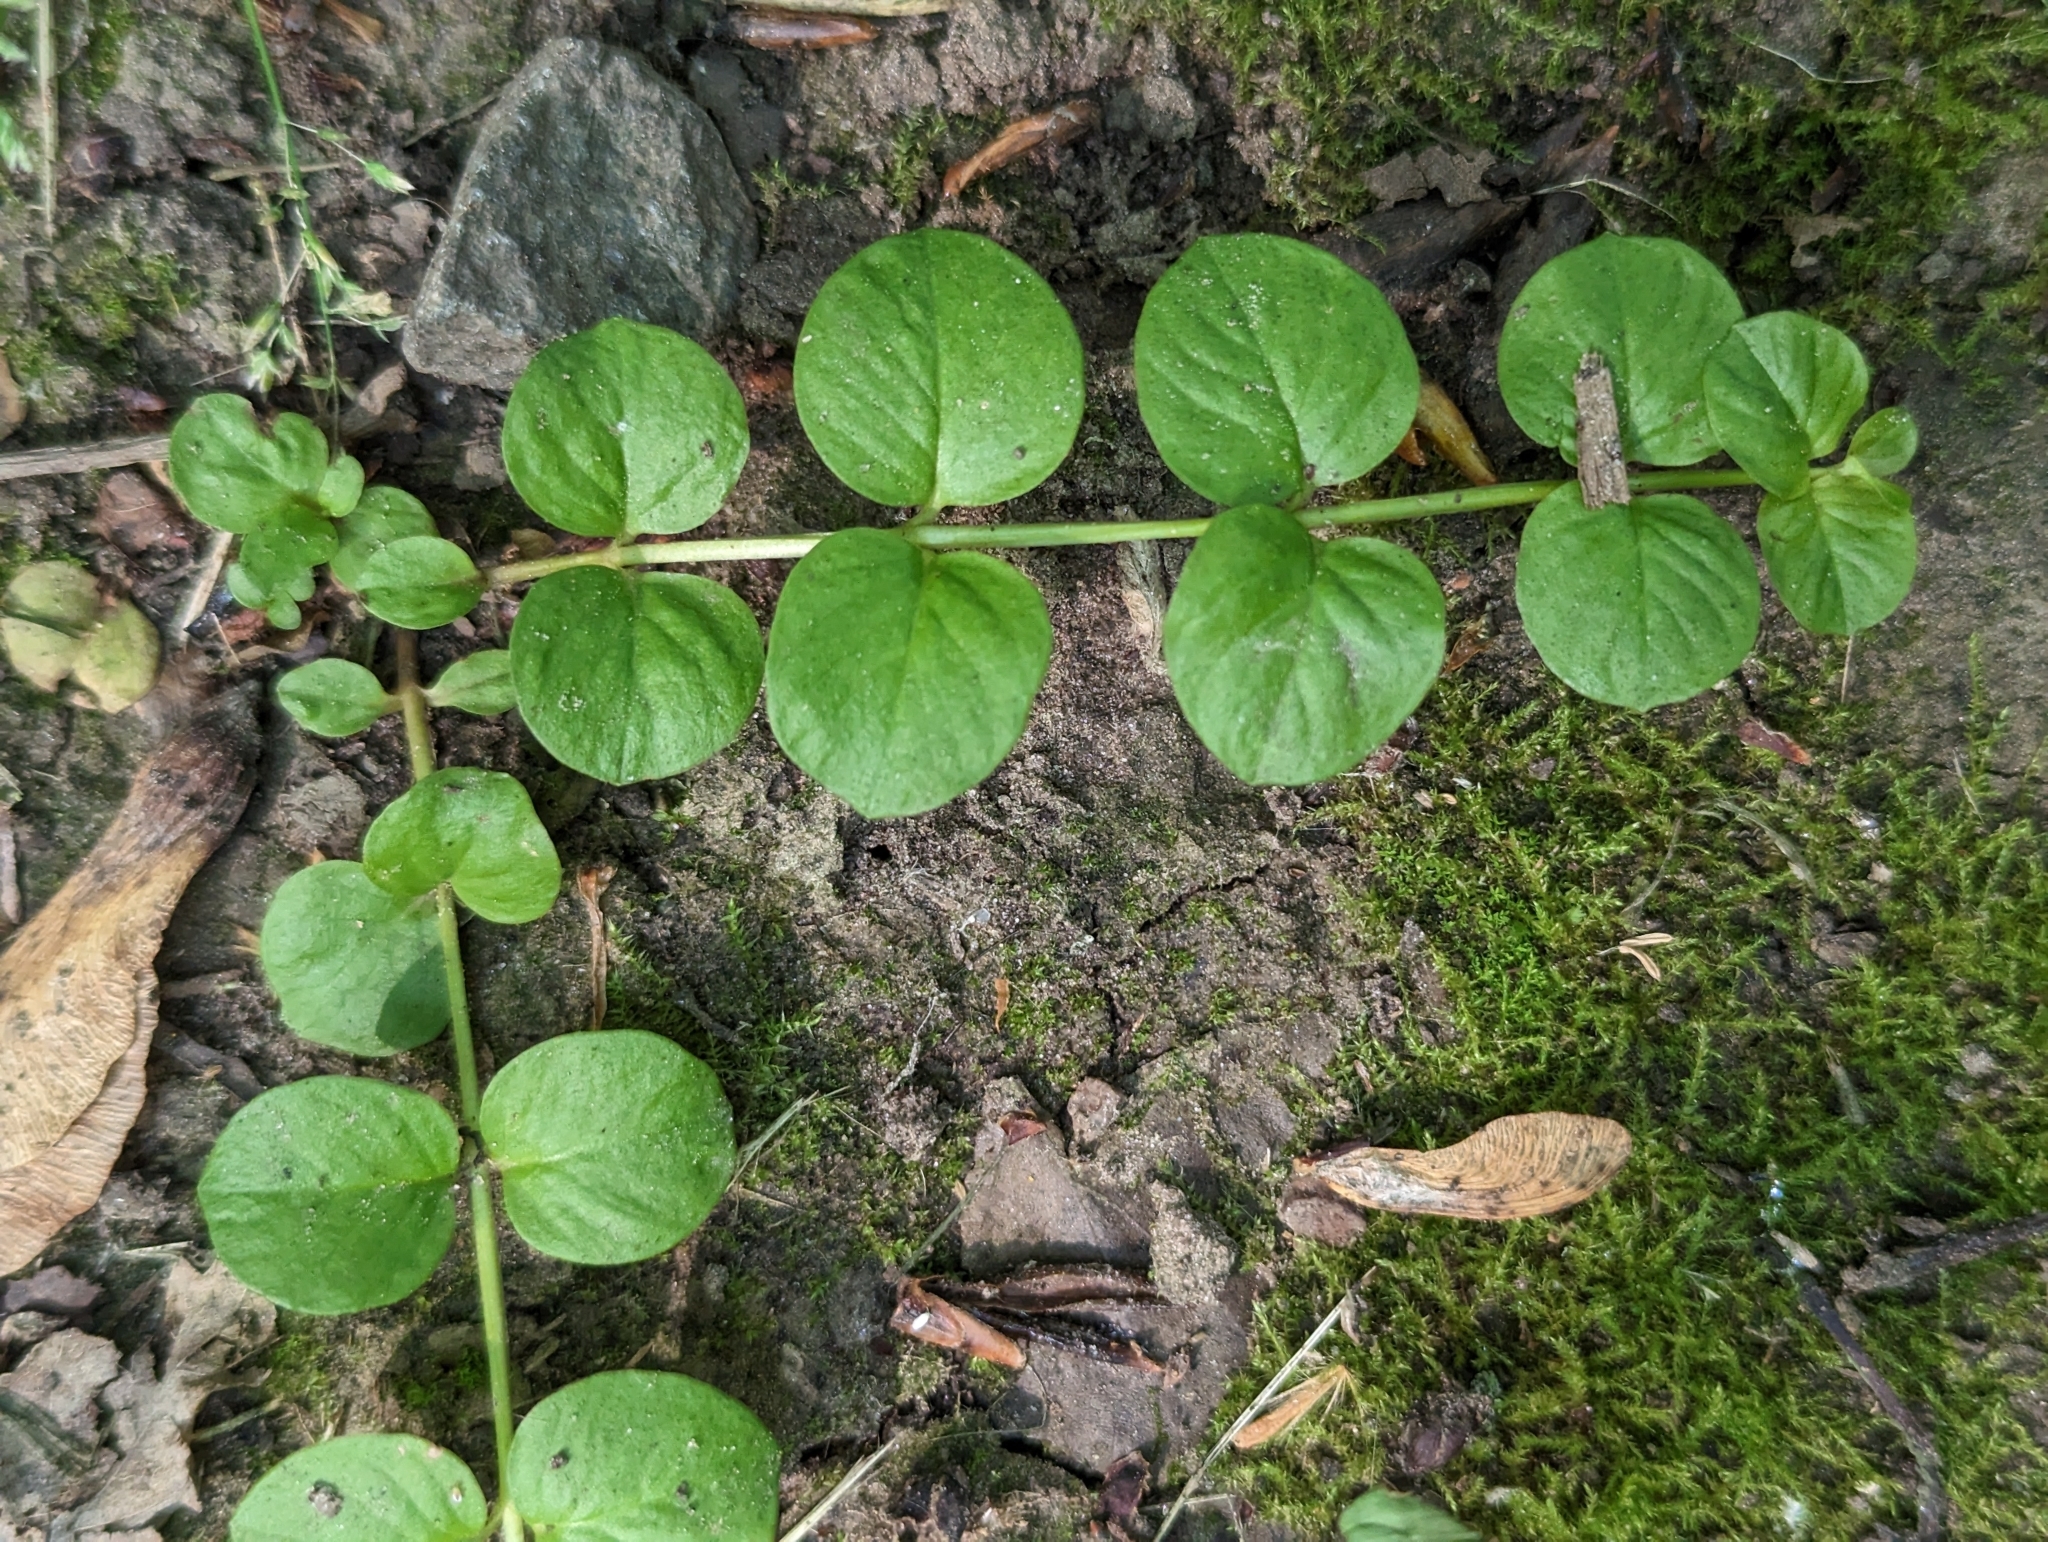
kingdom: Plantae
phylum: Tracheophyta
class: Magnoliopsida
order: Ericales
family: Primulaceae
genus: Lysimachia
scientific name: Lysimachia nummularia
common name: Moneywort
